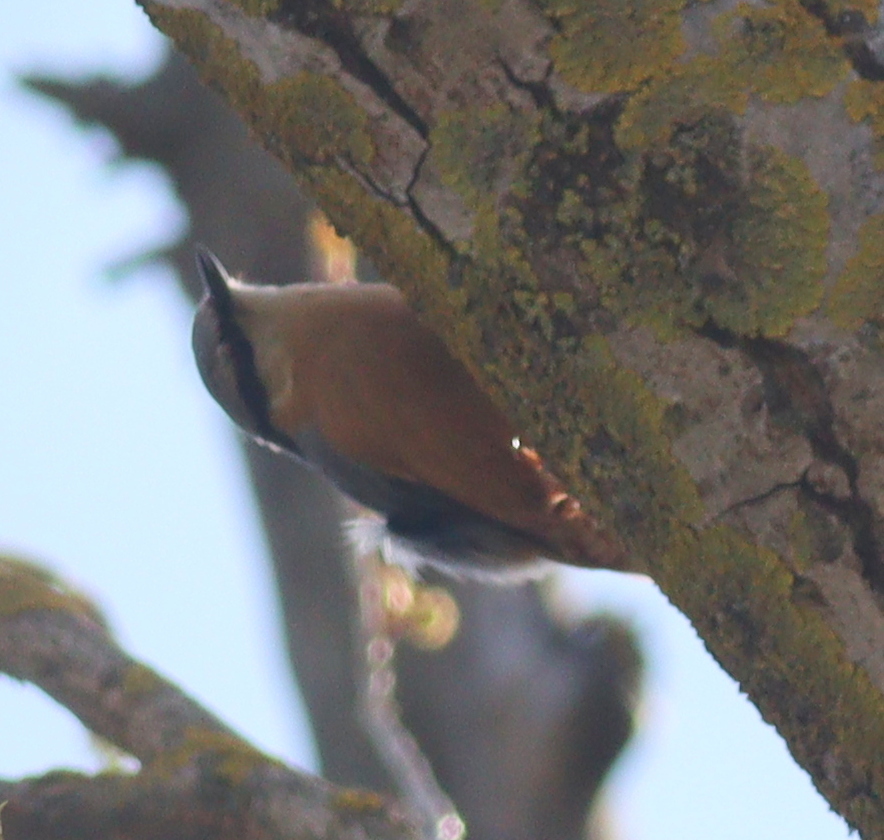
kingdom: Animalia
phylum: Chordata
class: Aves
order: Passeriformes
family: Sittidae
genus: Sitta
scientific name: Sitta europaea
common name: Eurasian nuthatch
